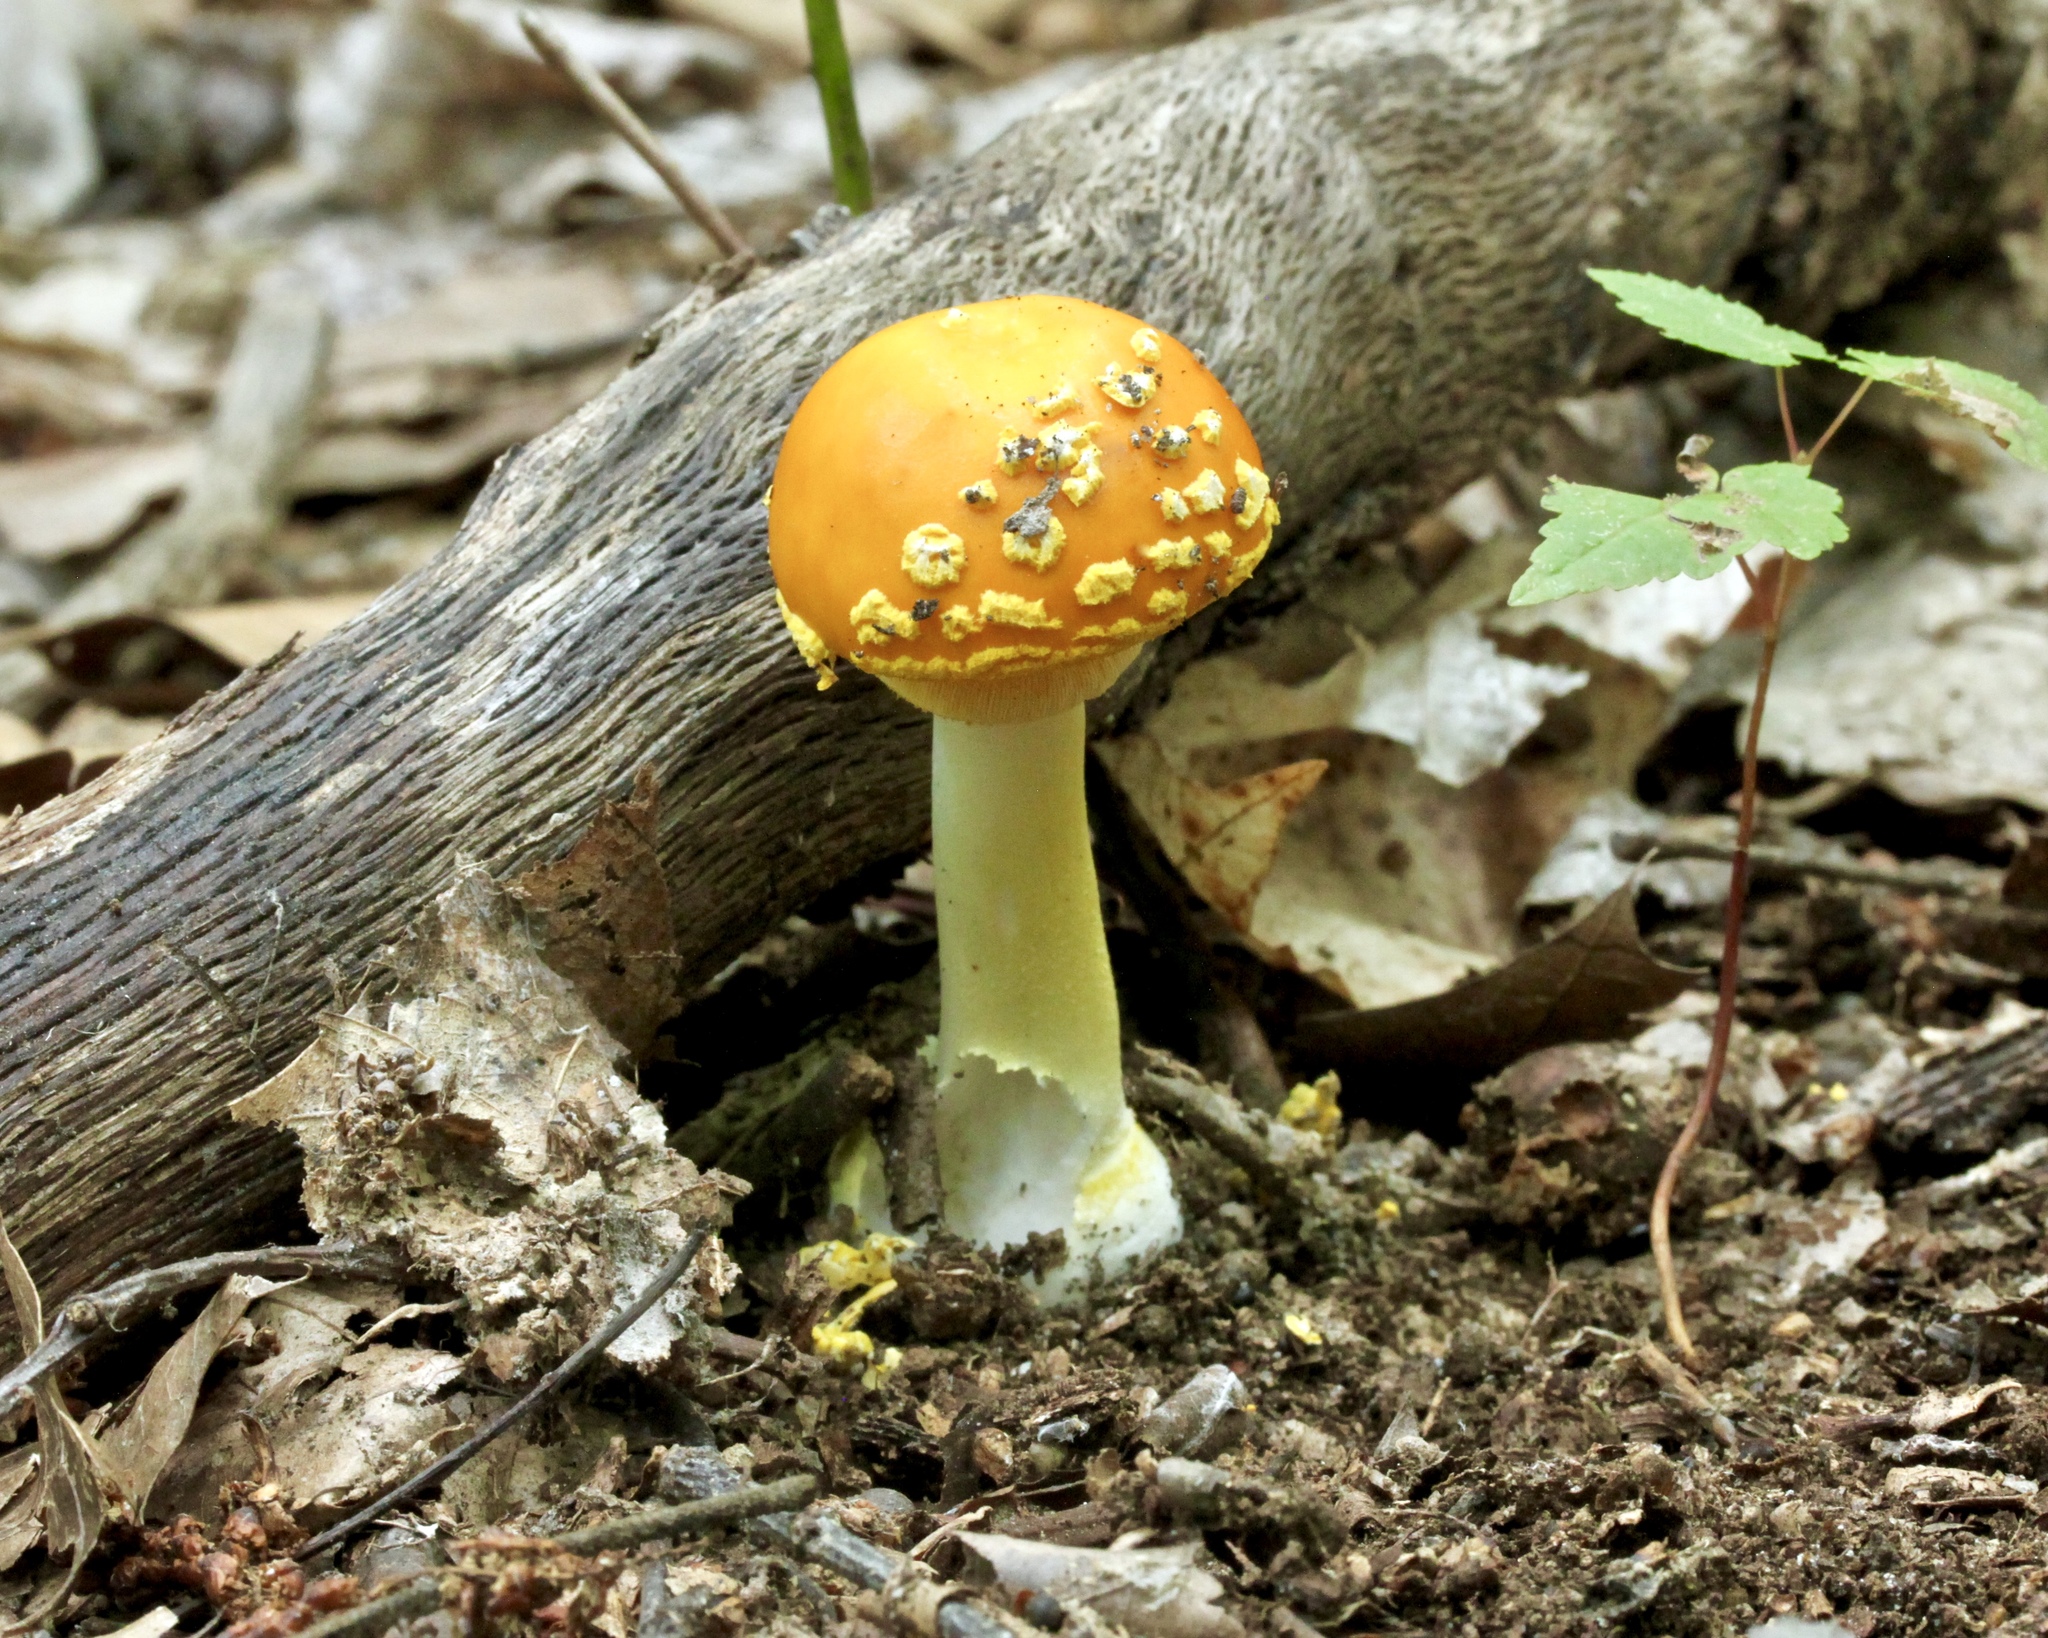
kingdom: Fungi
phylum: Basidiomycota
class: Agaricomycetes
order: Agaricales
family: Amanitaceae
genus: Amanita
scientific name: Amanita flavoconia
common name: Yellow patches
